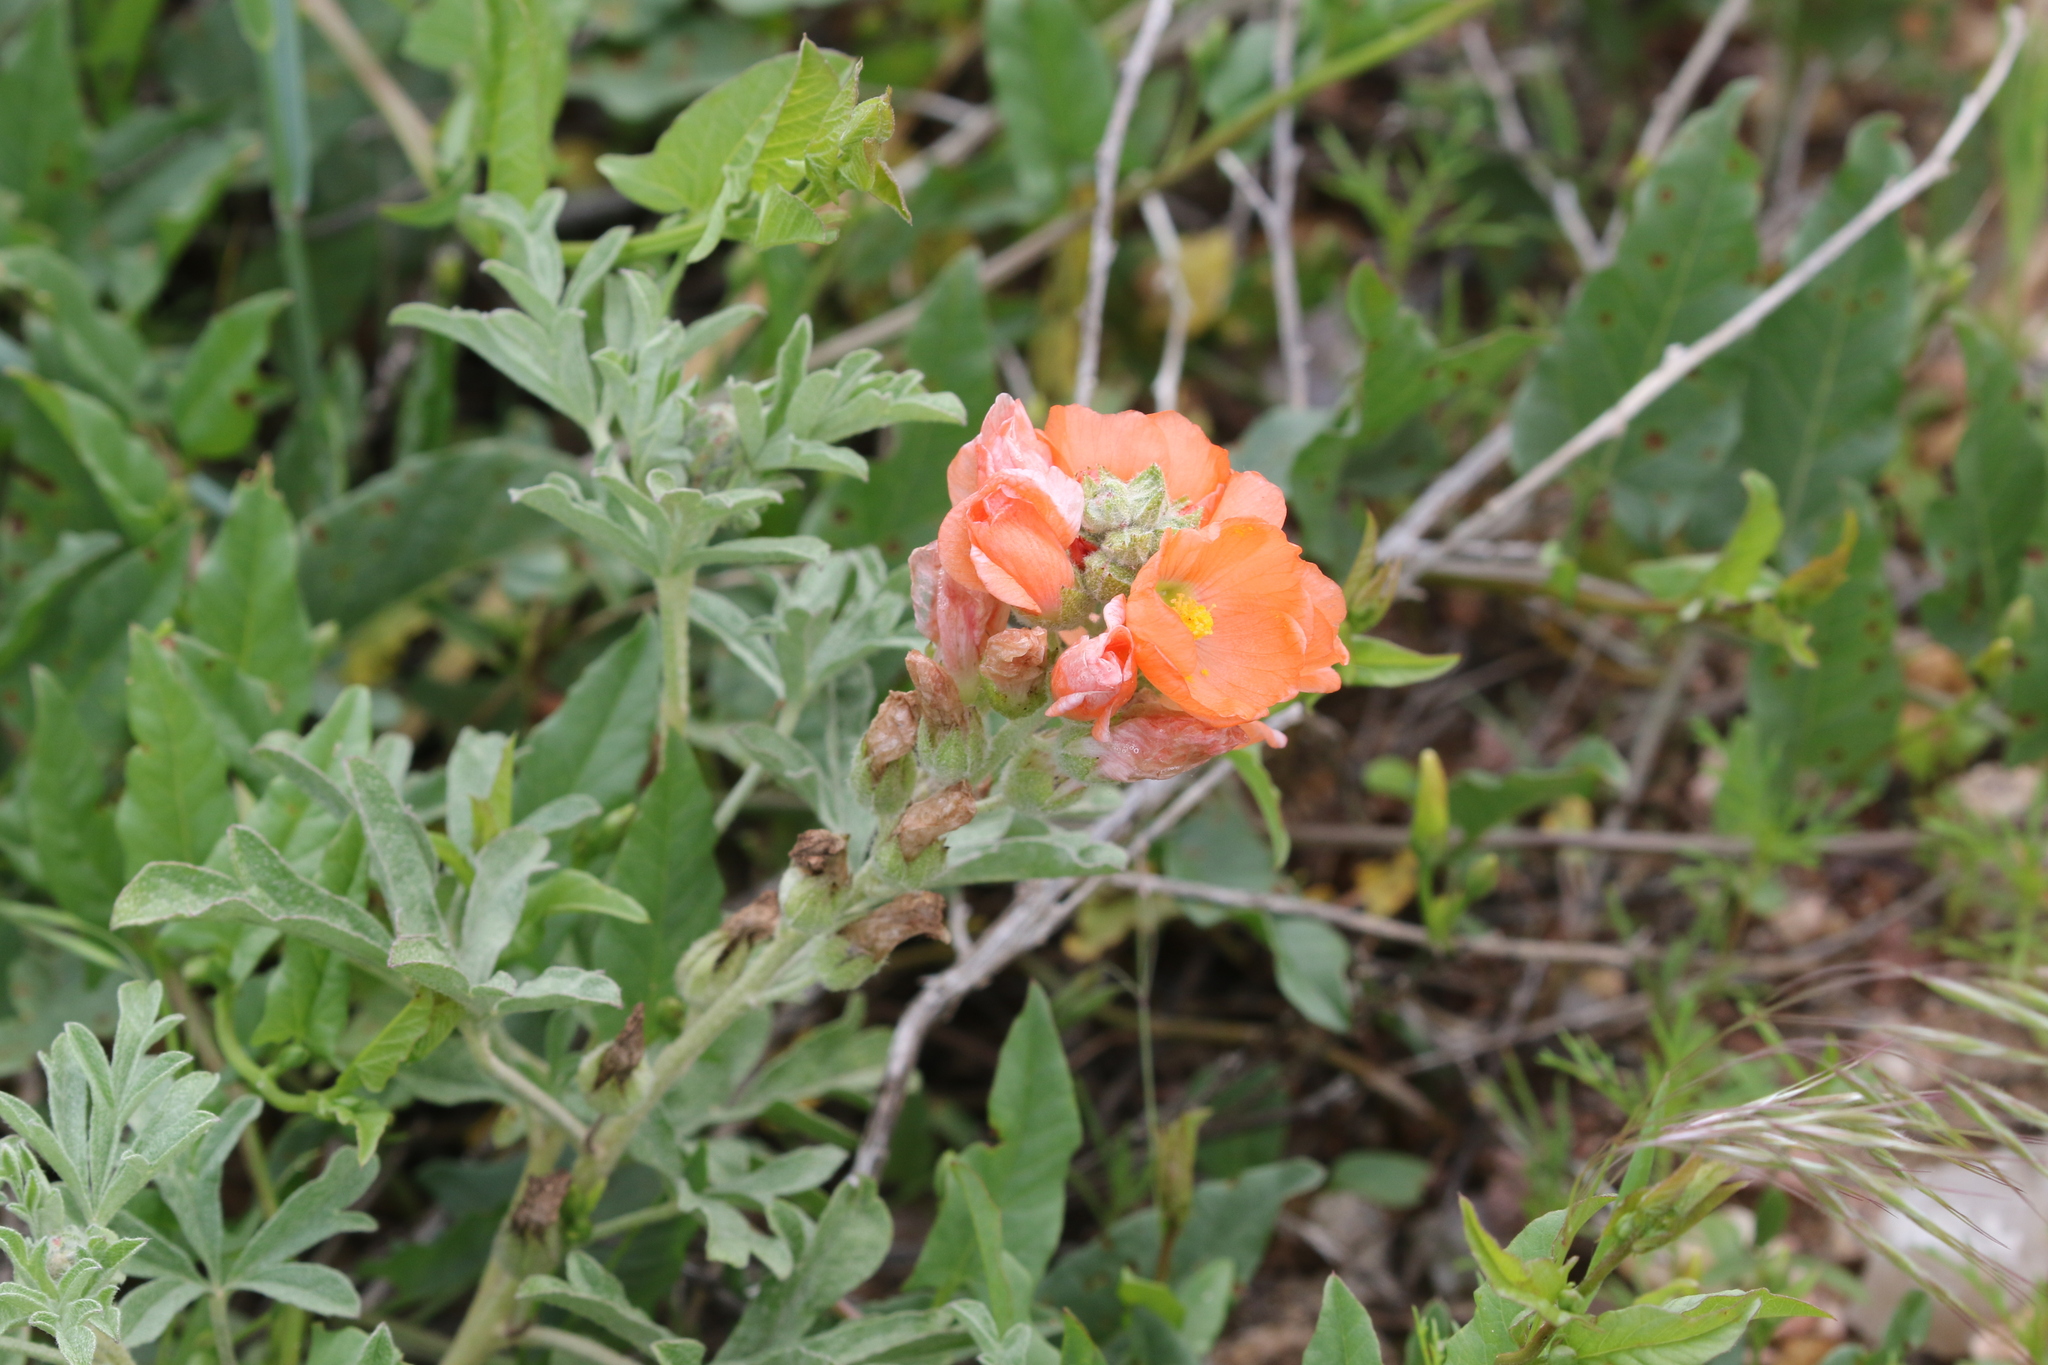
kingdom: Plantae
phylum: Tracheophyta
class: Magnoliopsida
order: Malvales
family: Malvaceae
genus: Sphaeralcea
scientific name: Sphaeralcea coccinea
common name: Moss-rose
